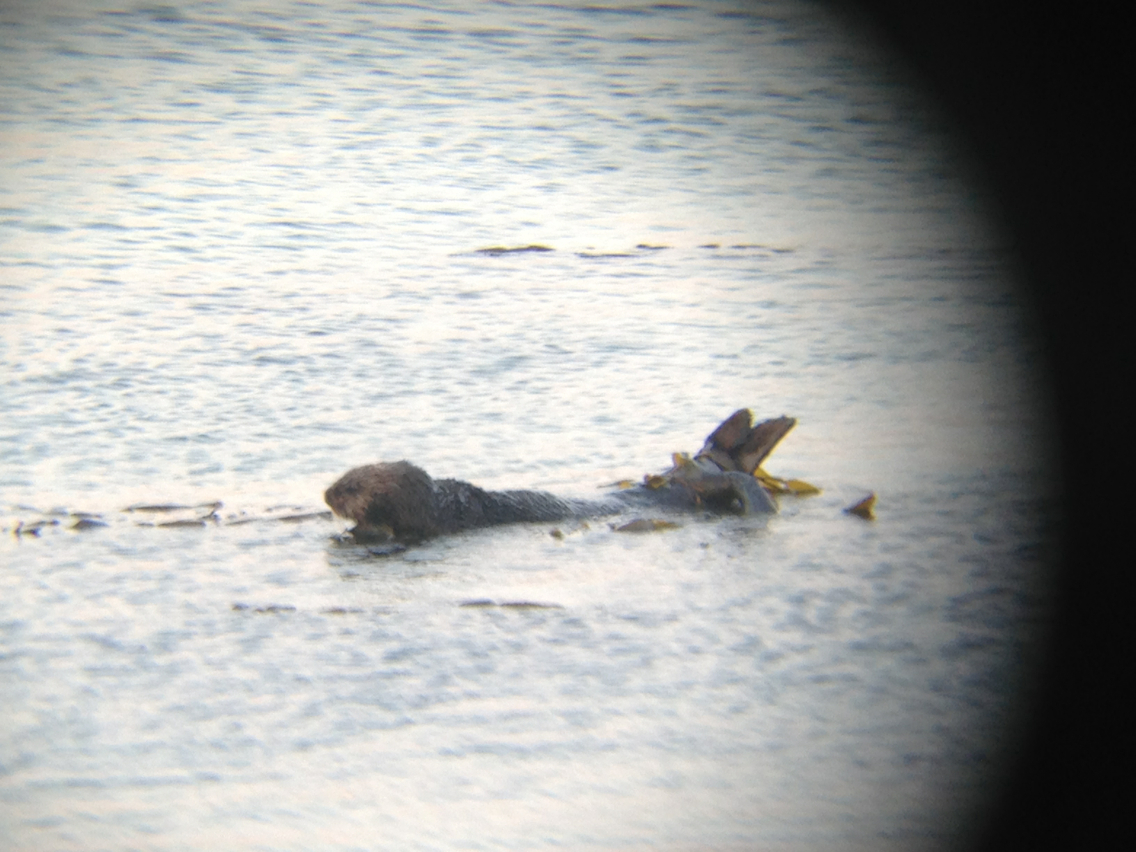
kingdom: Animalia
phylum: Chordata
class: Mammalia
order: Carnivora
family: Mustelidae
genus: Enhydra
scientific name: Enhydra lutris
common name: Sea otter
